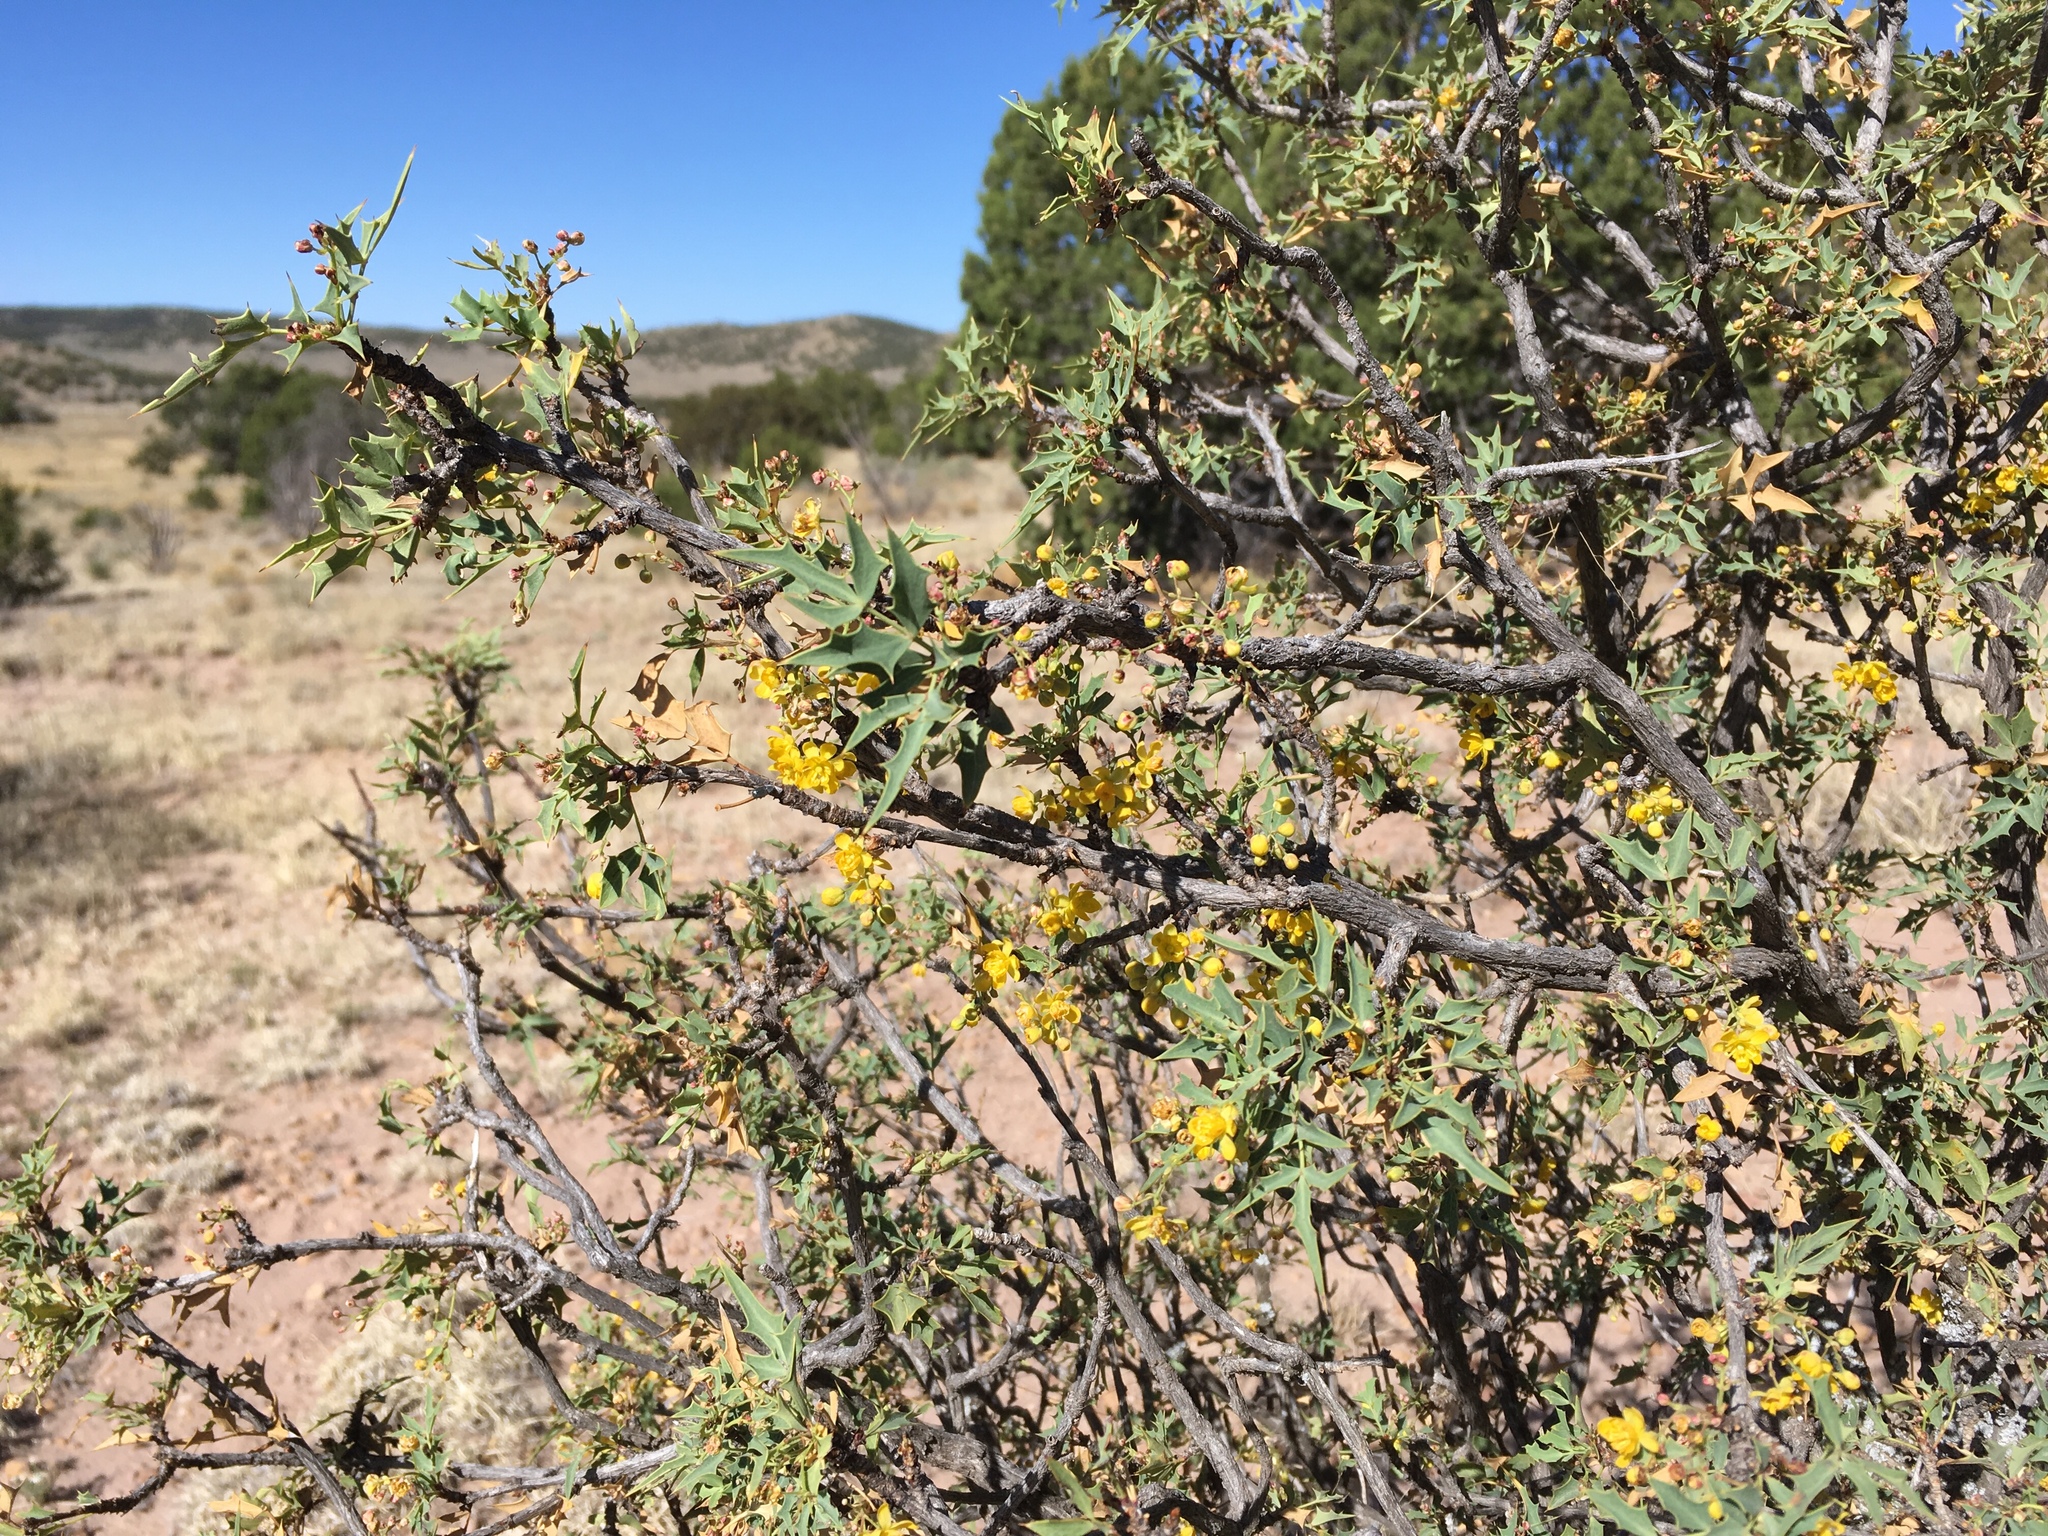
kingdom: Plantae
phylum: Tracheophyta
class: Magnoliopsida
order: Ranunculales
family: Berberidaceae
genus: Alloberberis
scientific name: Alloberberis haematocarpa
